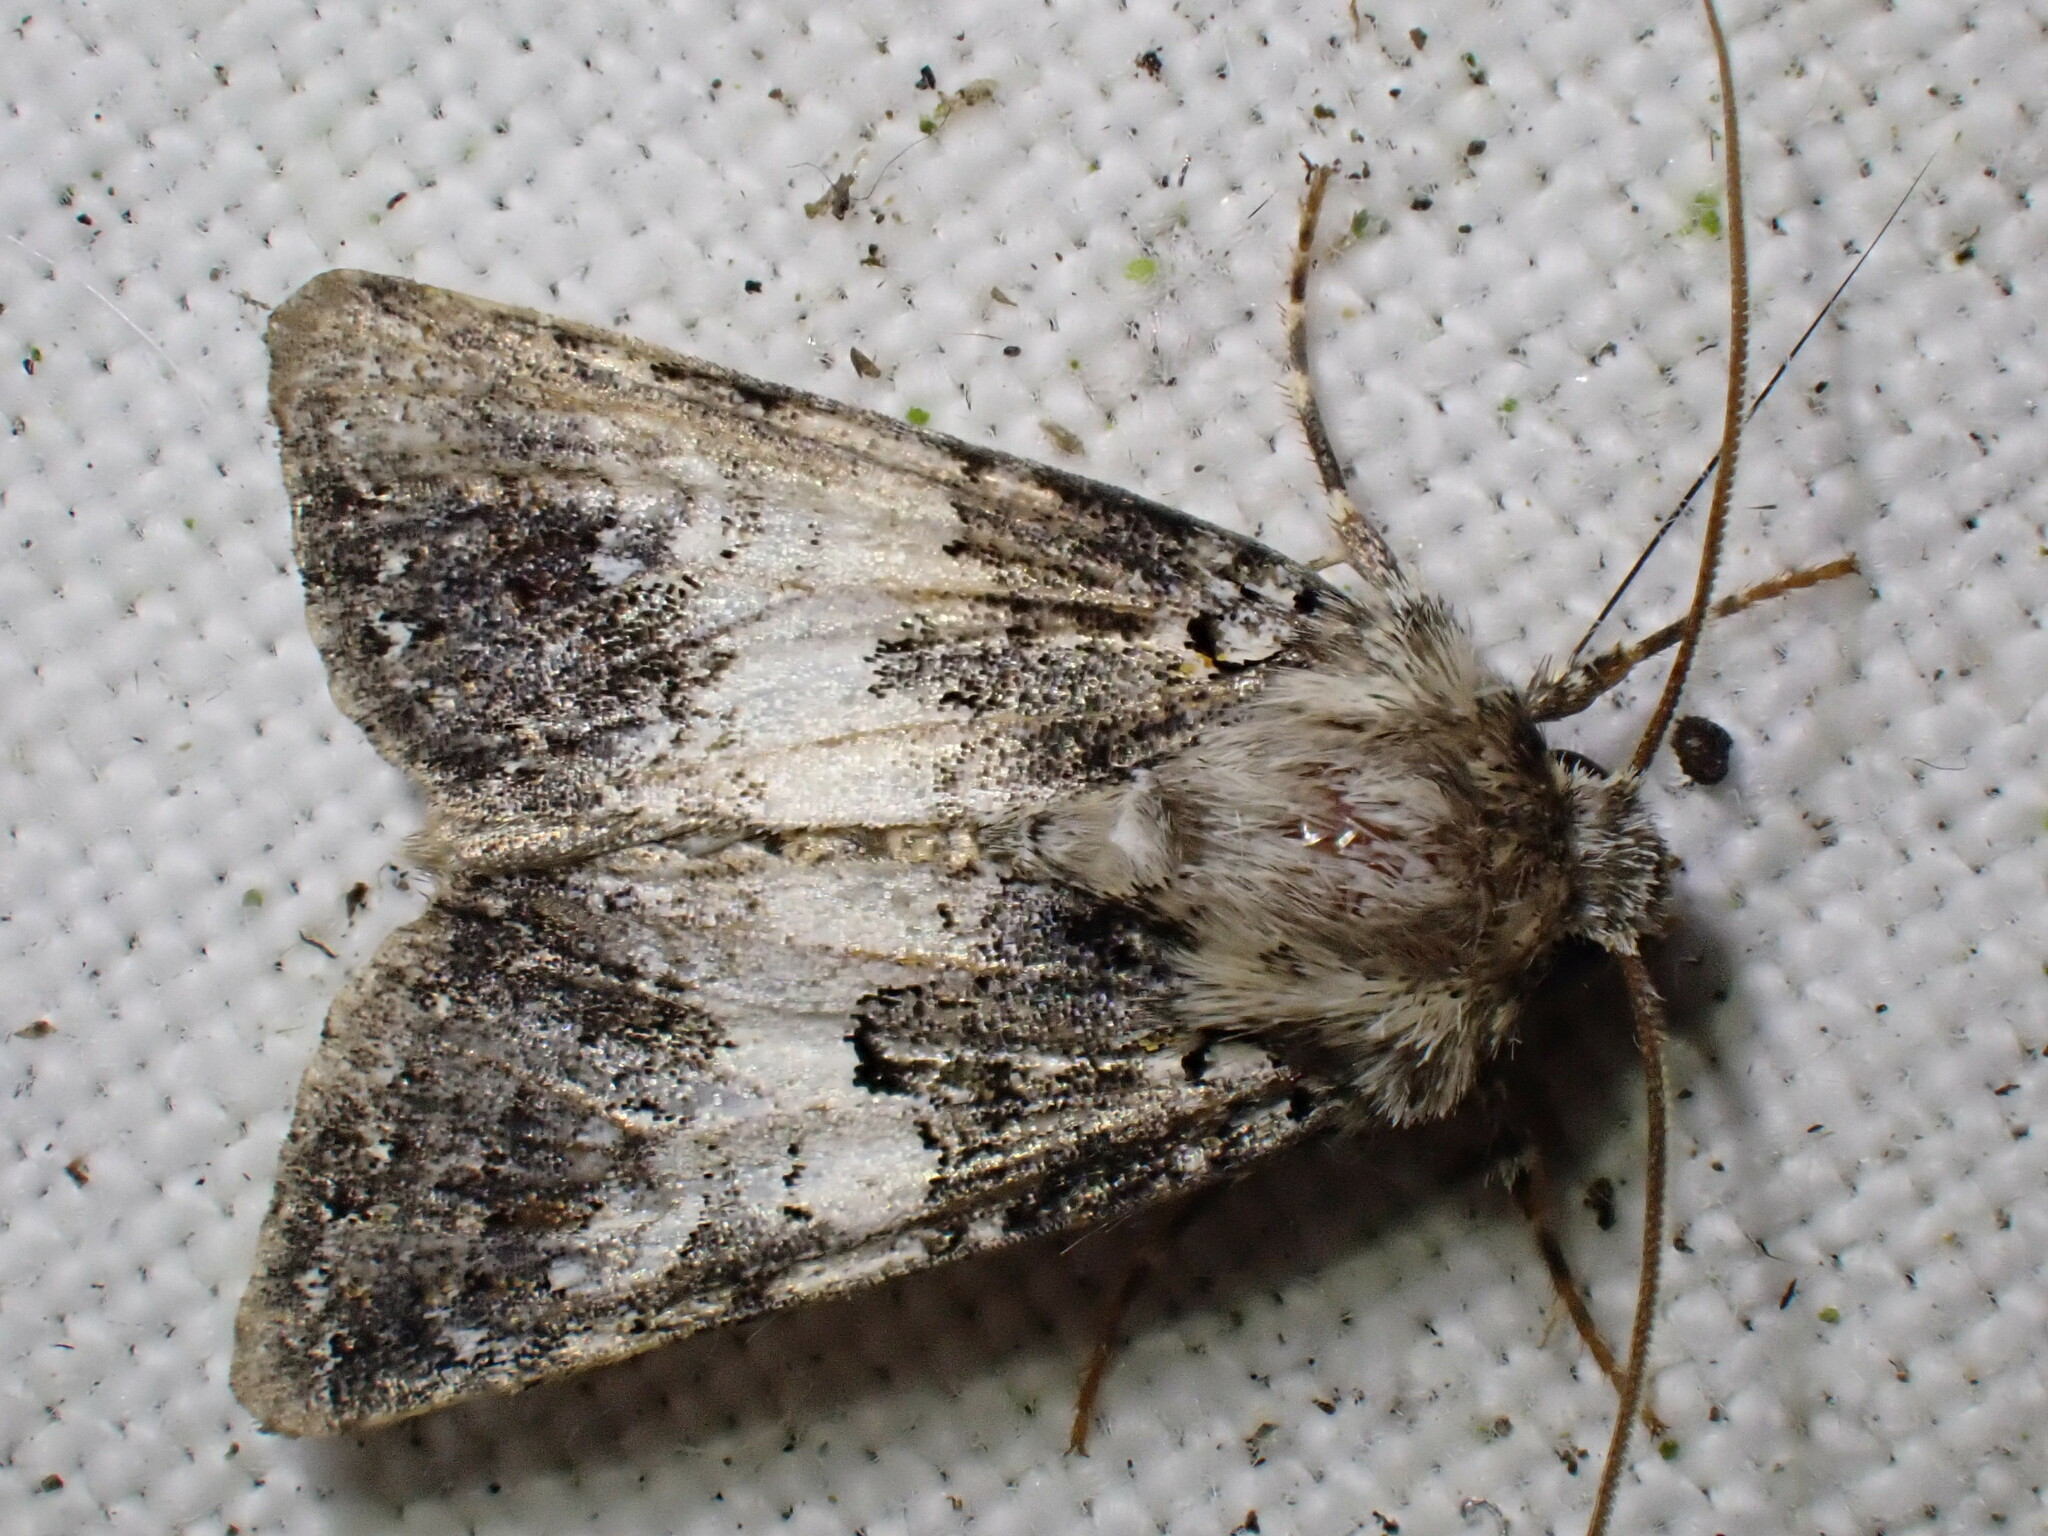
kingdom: Animalia
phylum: Arthropoda
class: Insecta
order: Lepidoptera
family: Noctuidae
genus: Hadena
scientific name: Hadena compta
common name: Varied coronet
